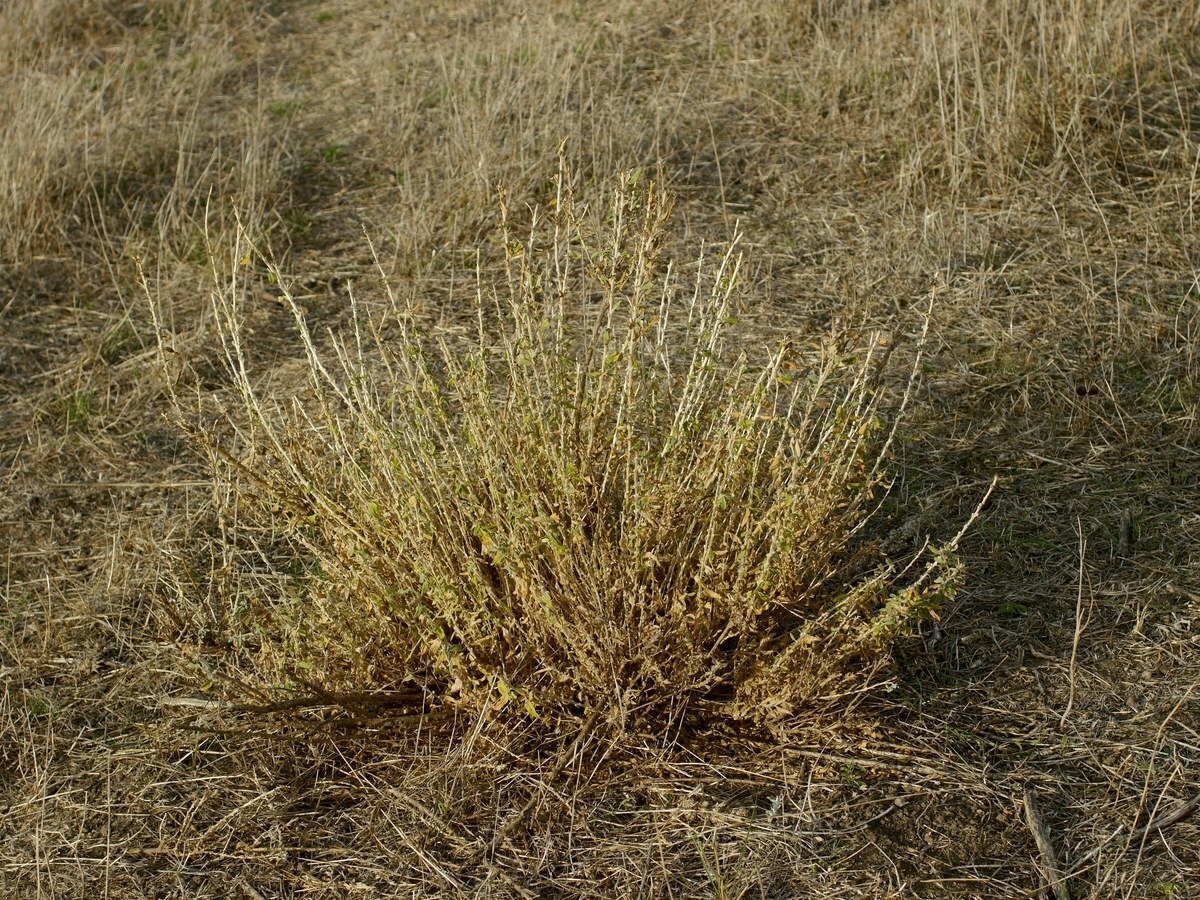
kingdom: Plantae
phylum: Tracheophyta
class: Magnoliopsida
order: Caryophyllales
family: Amaranthaceae
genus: Krascheninnikovia
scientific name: Krascheninnikovia ceratoides
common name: Pamirian winterfat
